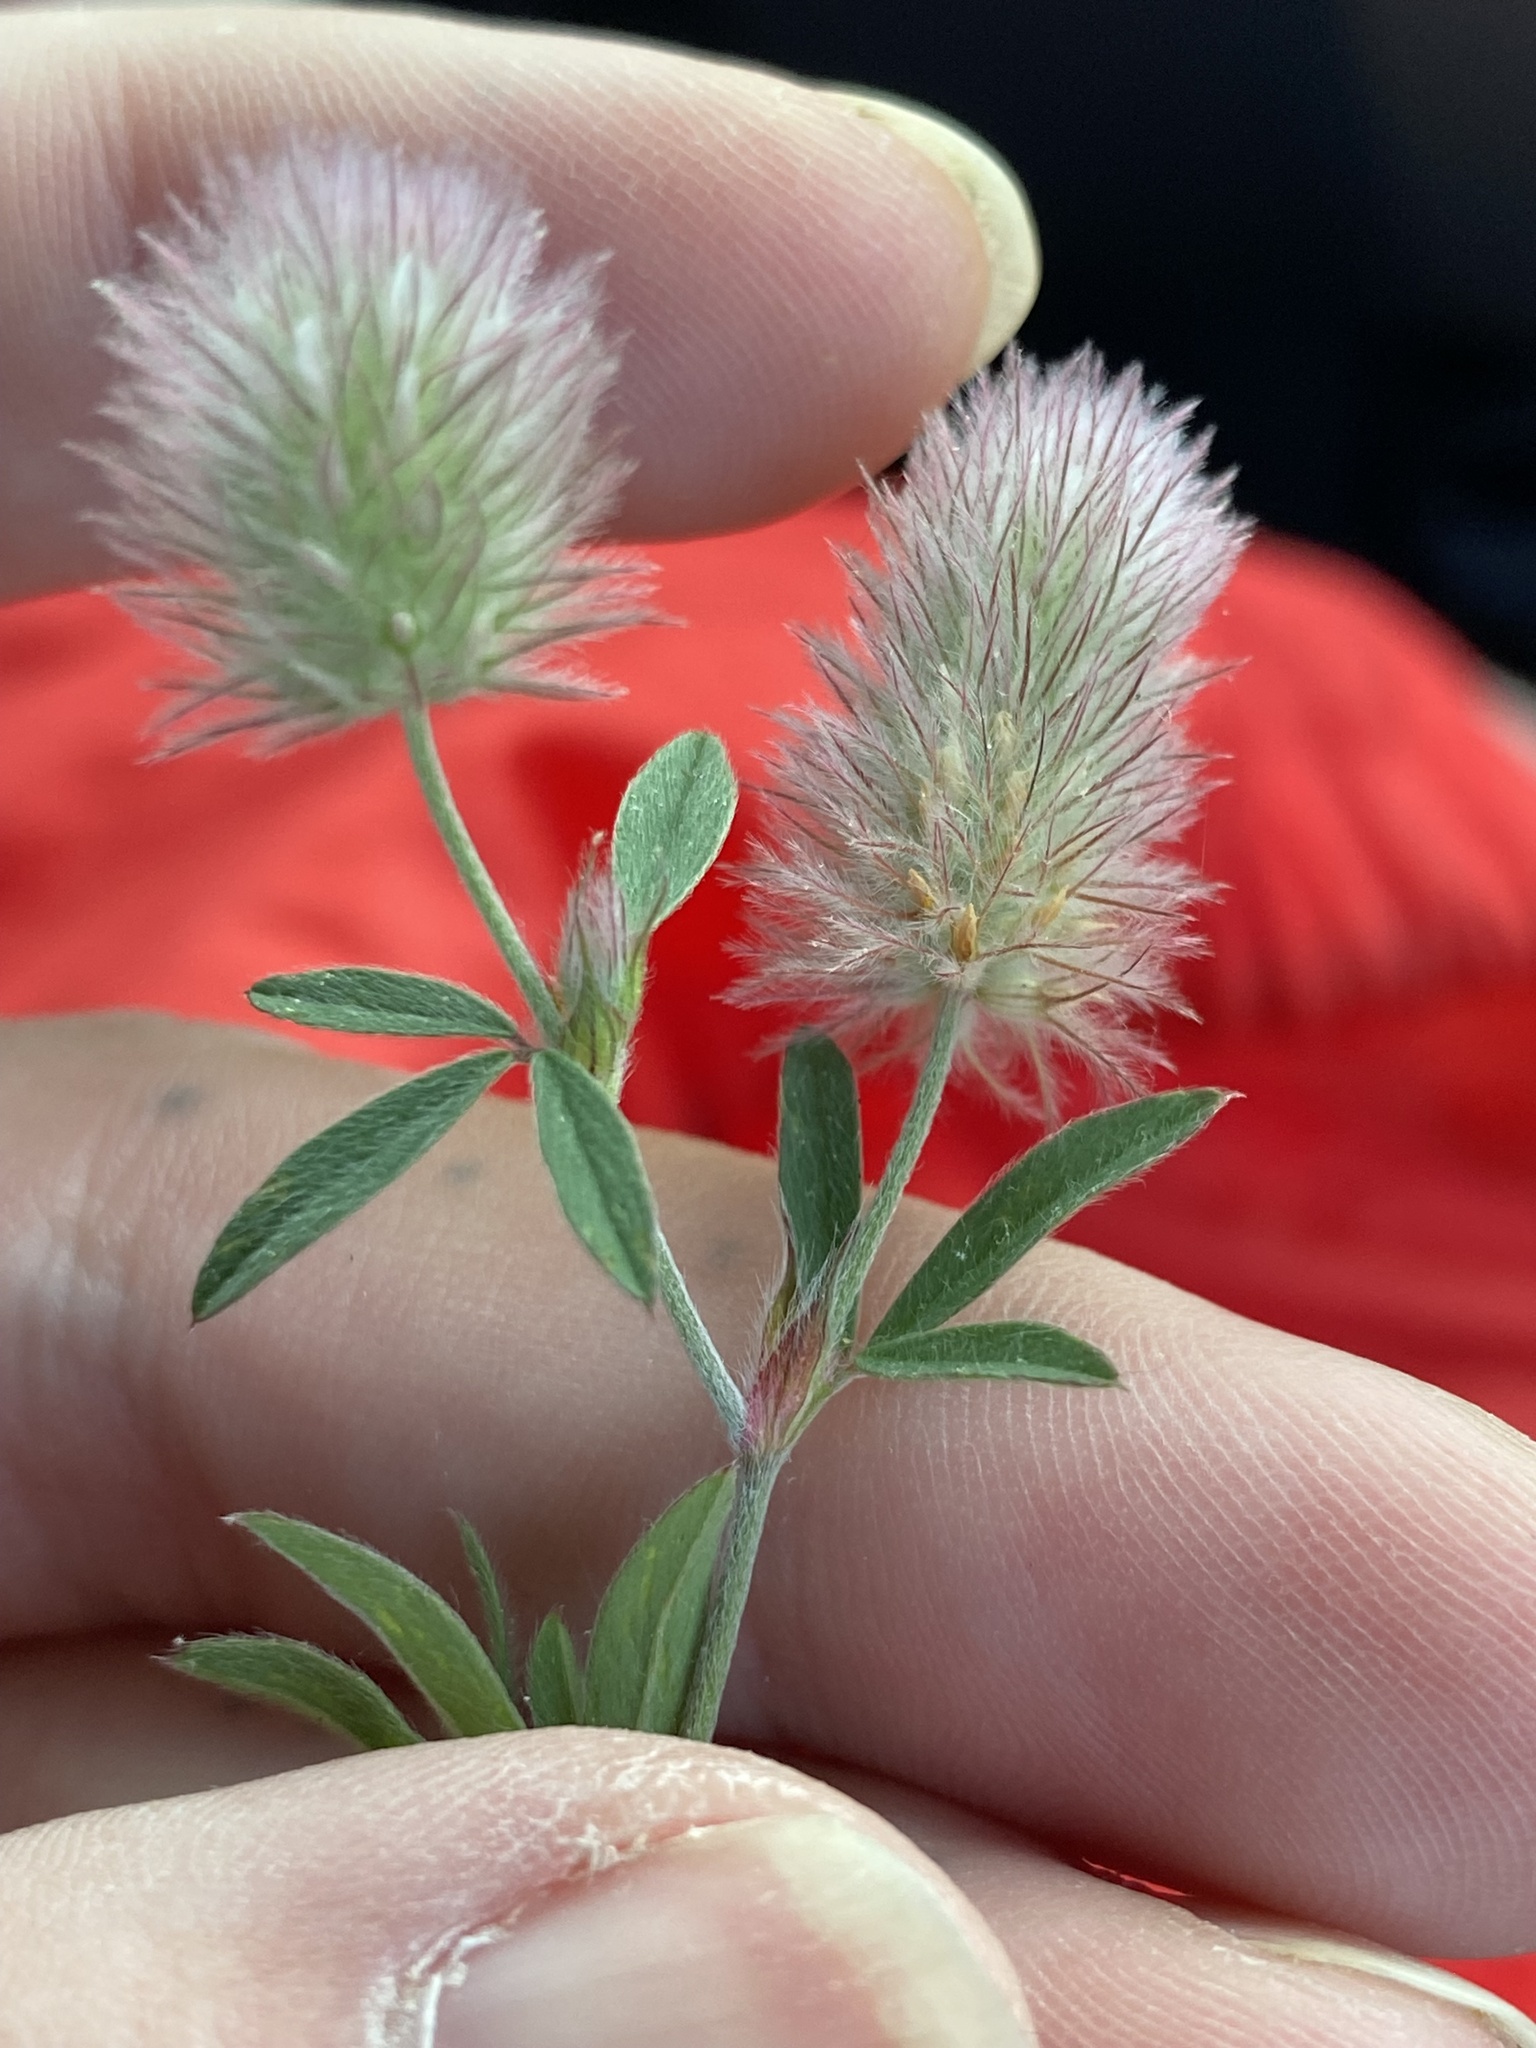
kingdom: Plantae
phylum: Tracheophyta
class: Magnoliopsida
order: Fabales
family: Fabaceae
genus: Trifolium
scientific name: Trifolium arvense
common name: Hare's-foot clover
